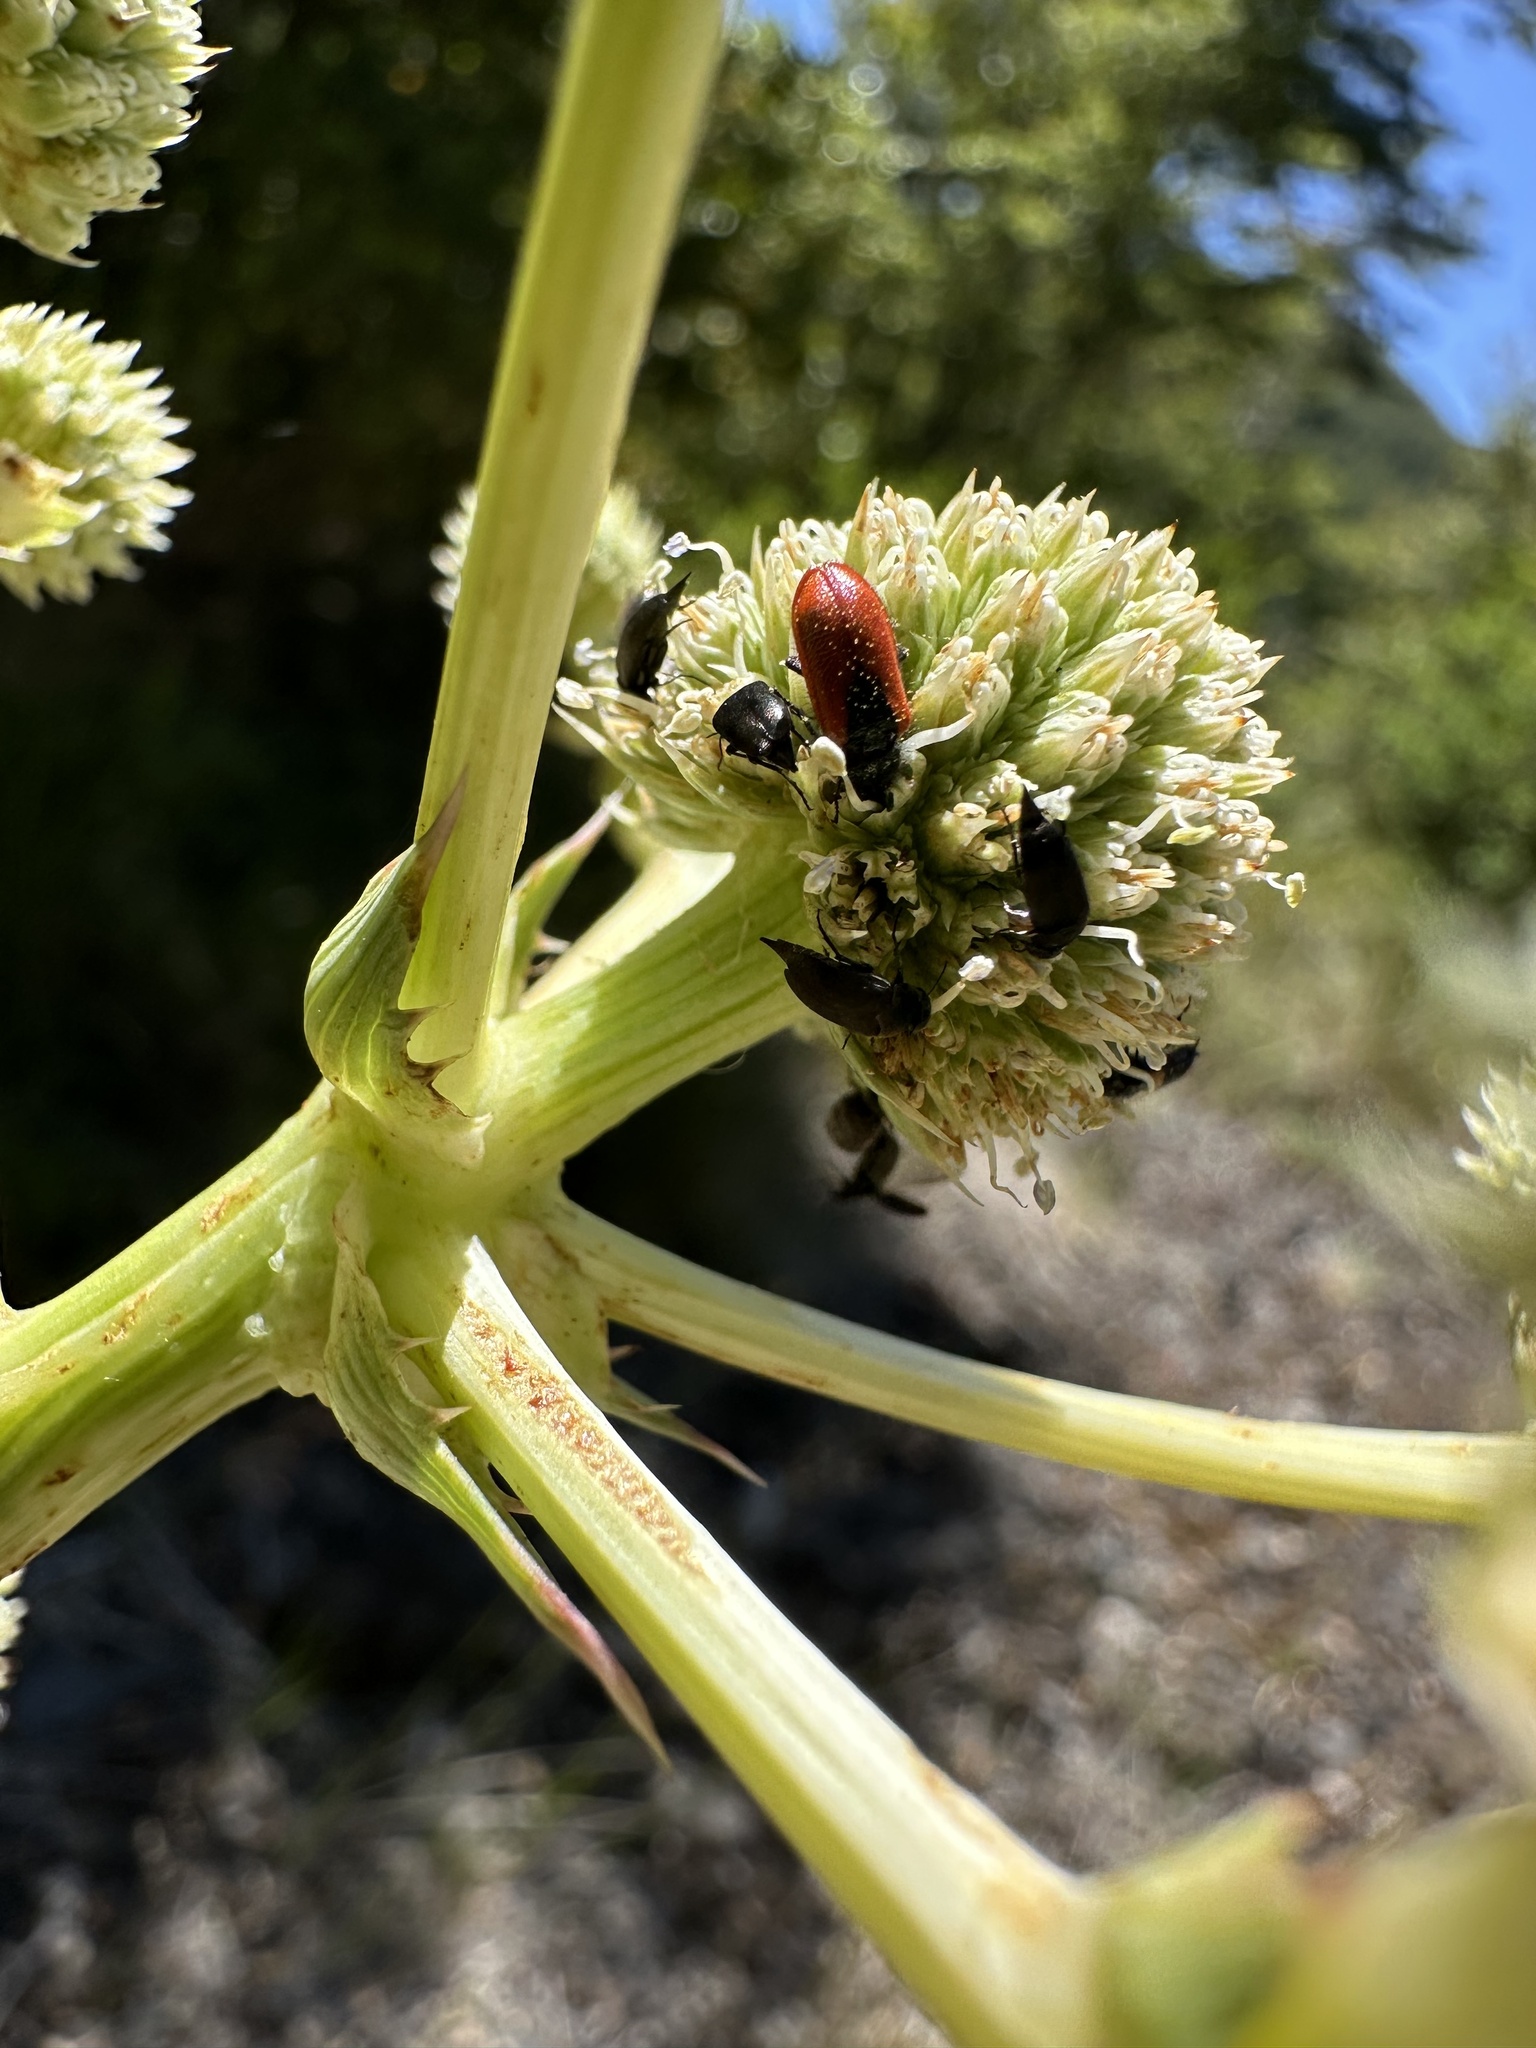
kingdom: Animalia
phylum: Arthropoda
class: Insecta
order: Coleoptera
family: Melyridae
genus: Arthrobrachus
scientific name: Arthrobrachus nigromaculatus
